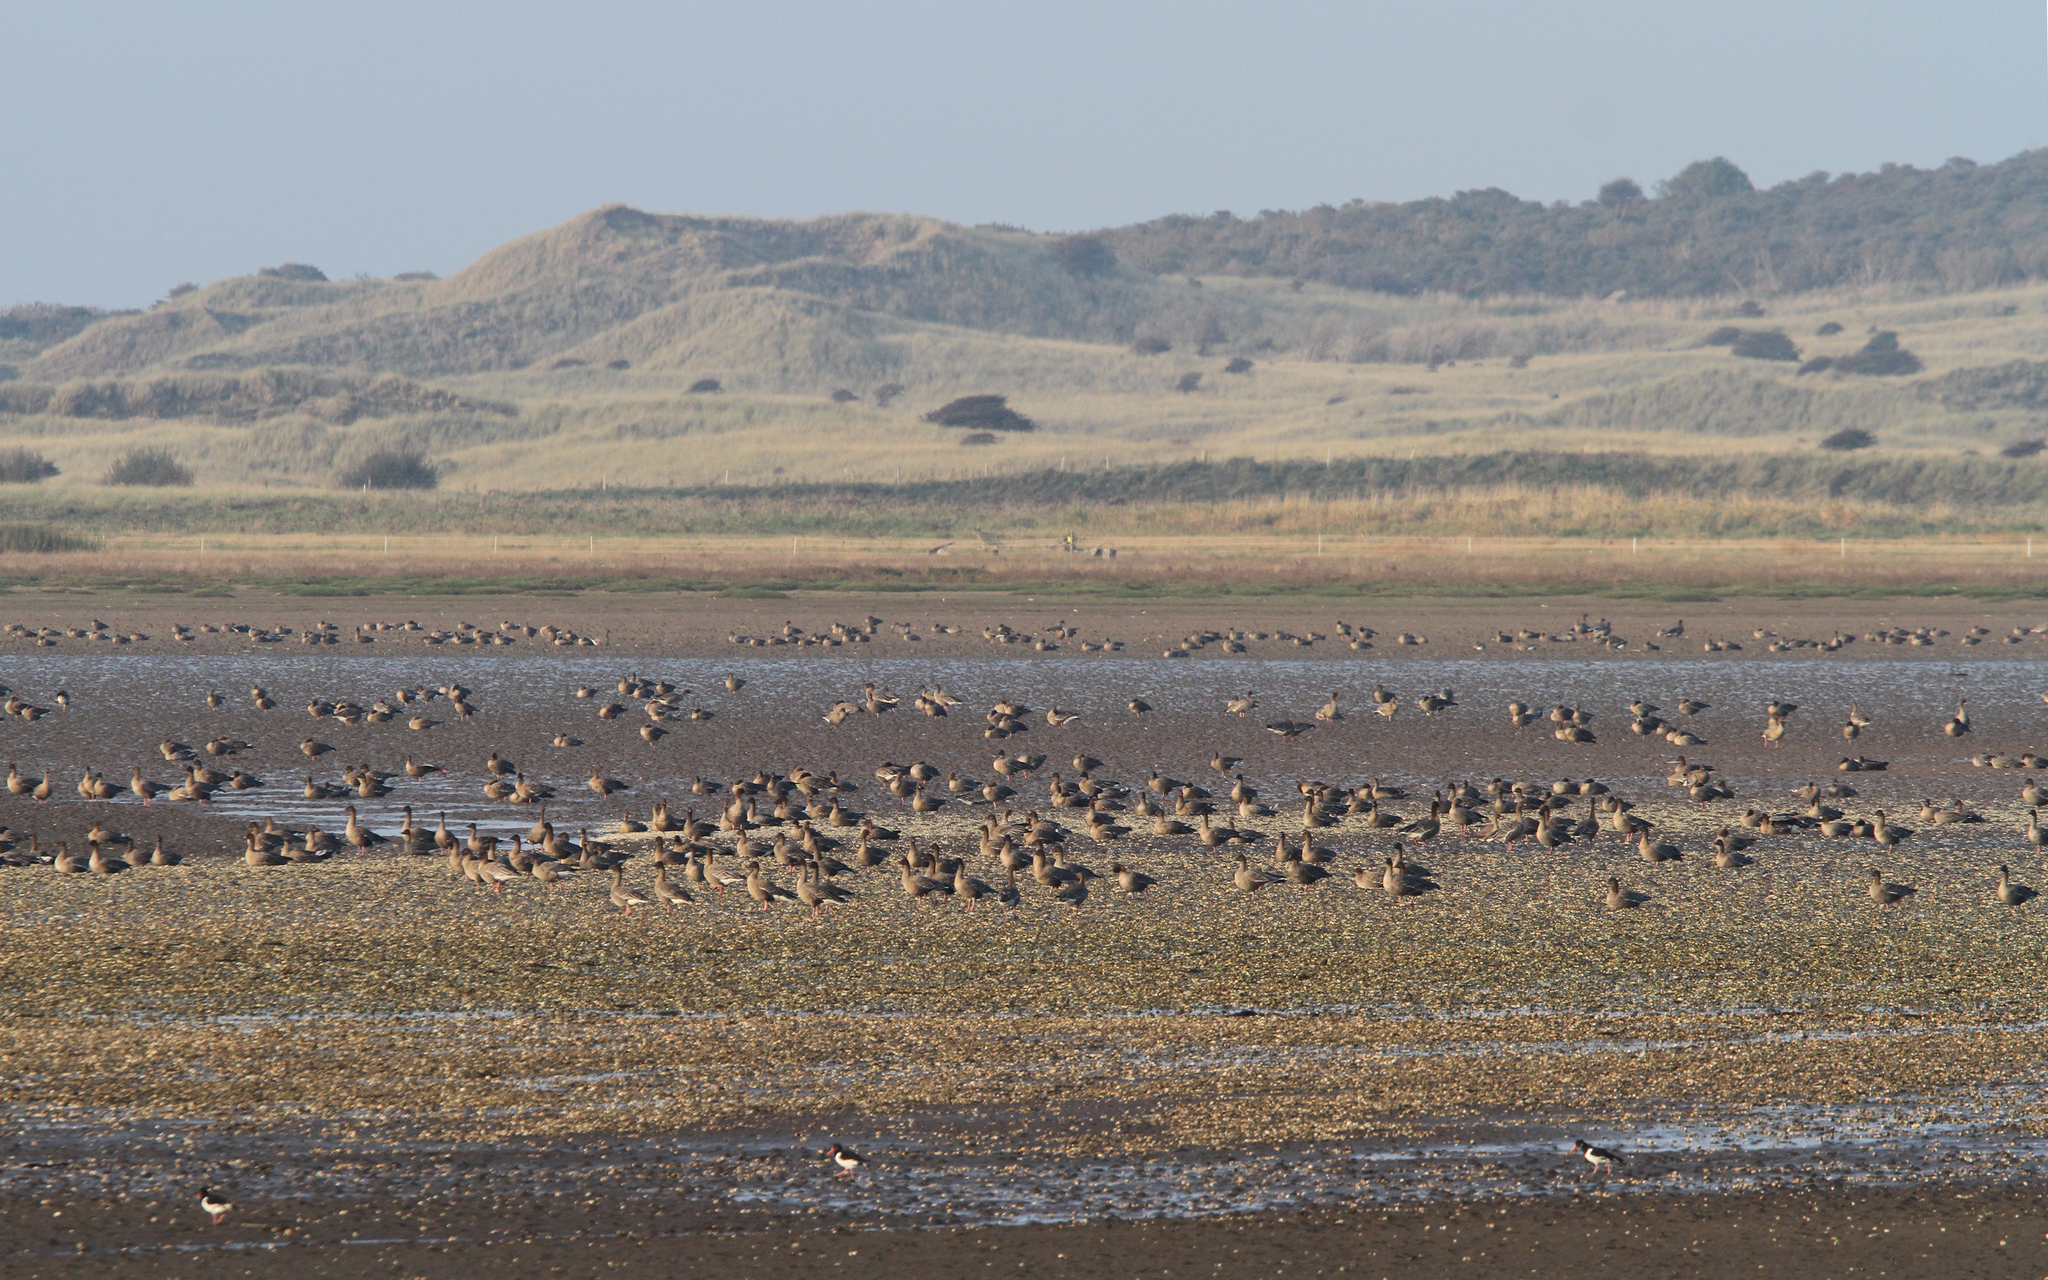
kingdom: Animalia
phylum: Chordata
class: Aves
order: Anseriformes
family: Anatidae
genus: Anser
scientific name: Anser brachyrhynchus
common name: Pink-footed goose
